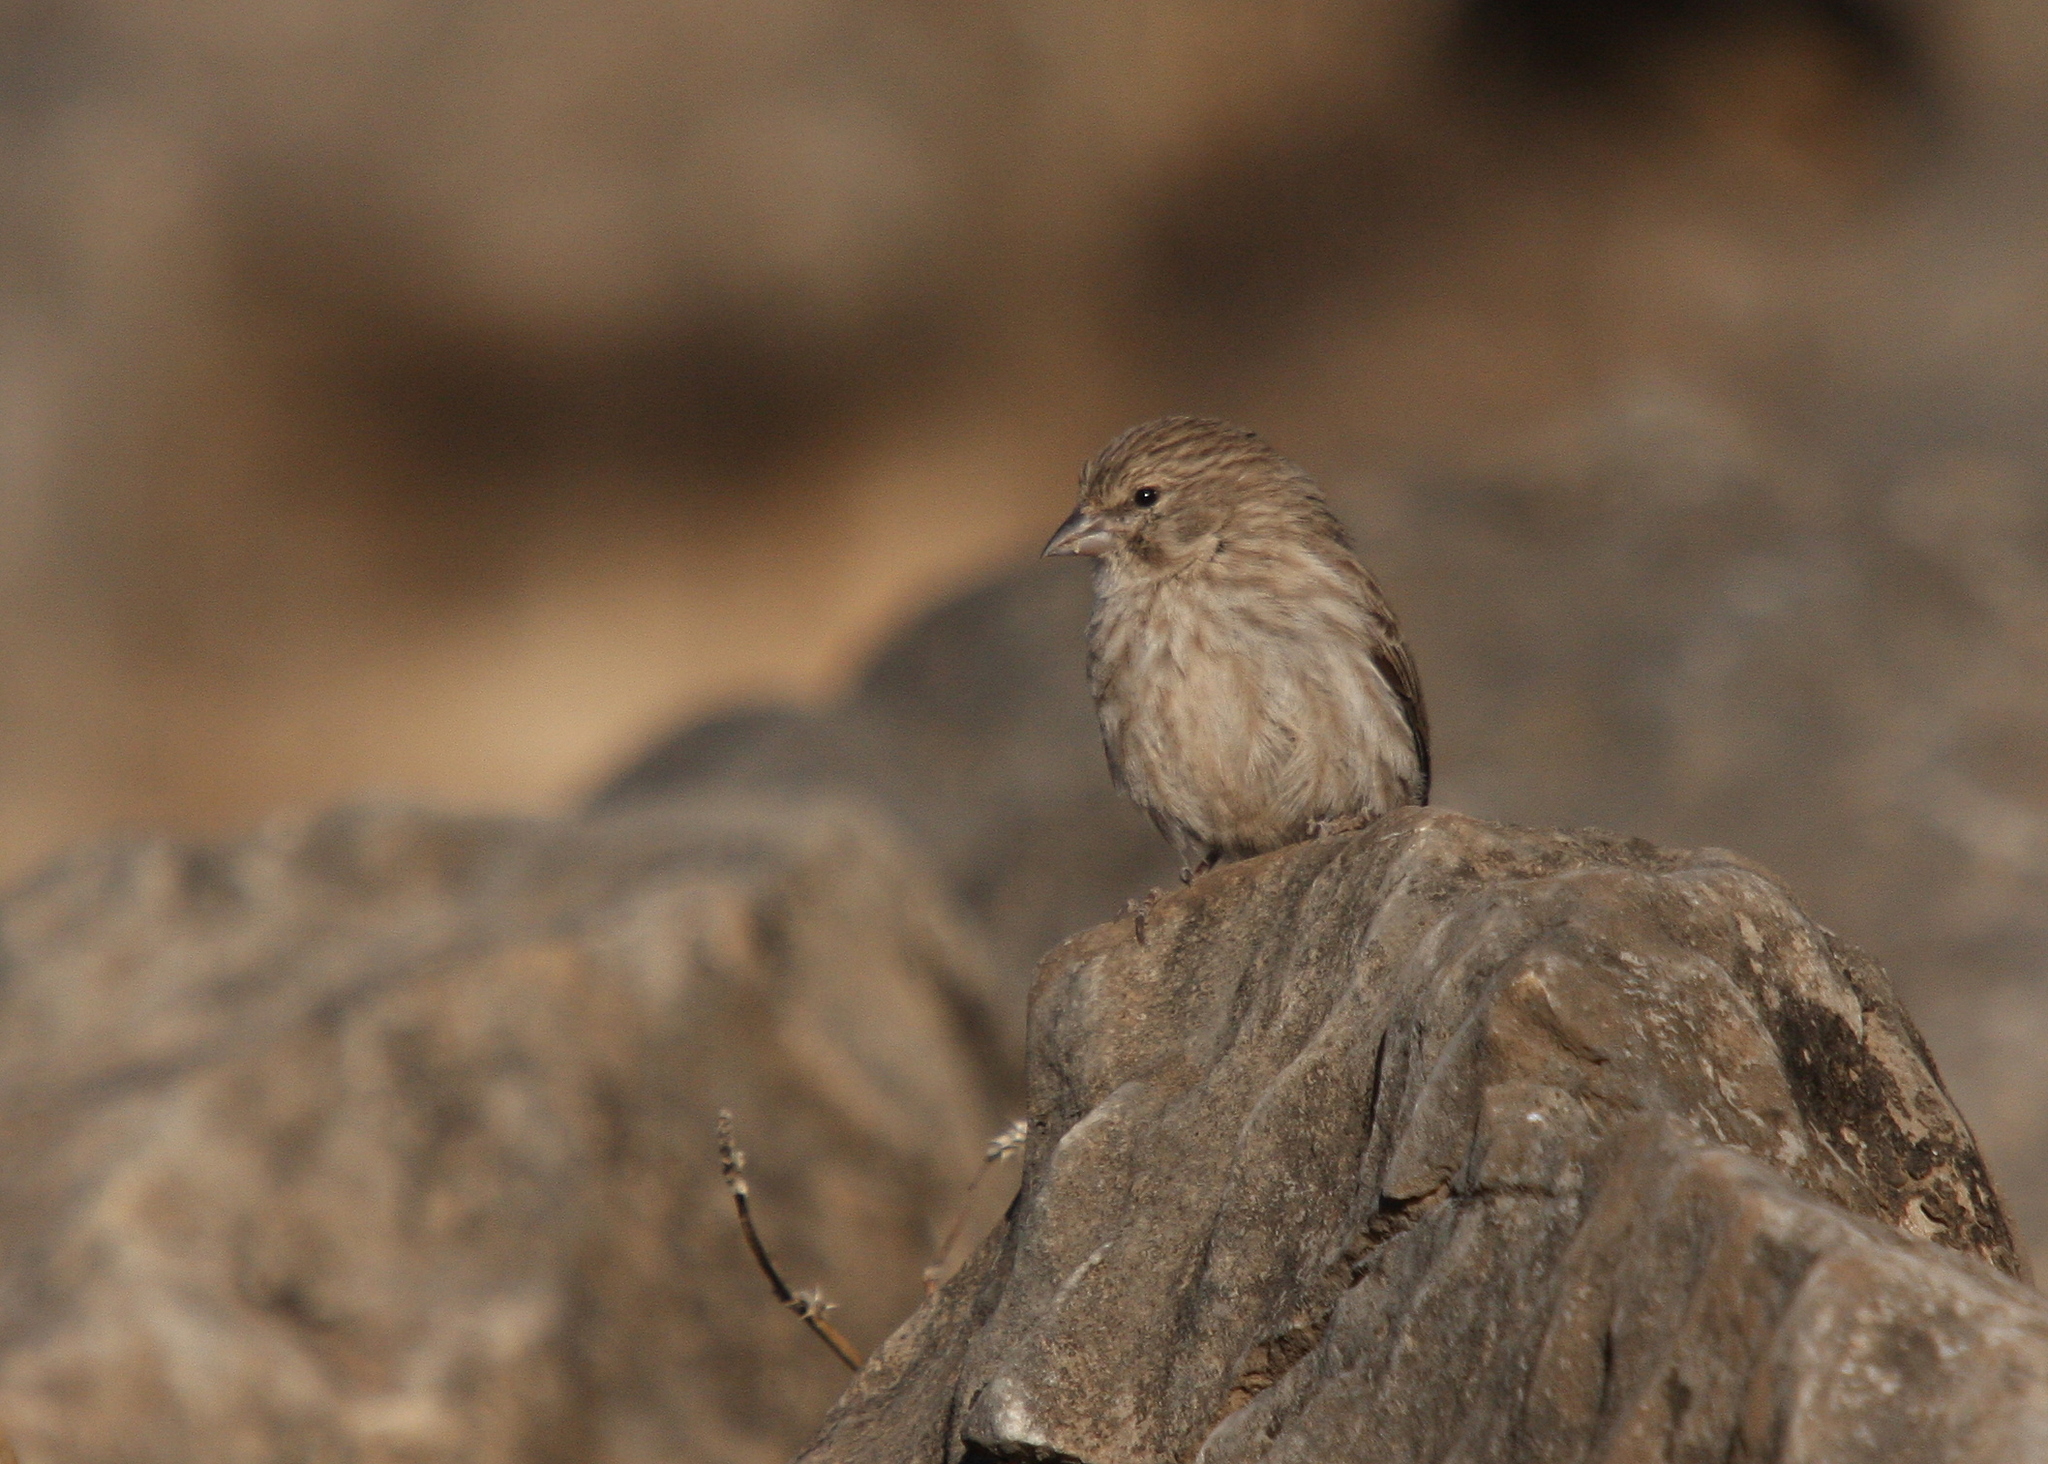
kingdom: Animalia
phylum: Chordata
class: Aves
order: Passeriformes
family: Fringillidae
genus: Crithagra
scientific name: Crithagra menachensis
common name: Yemen serin
